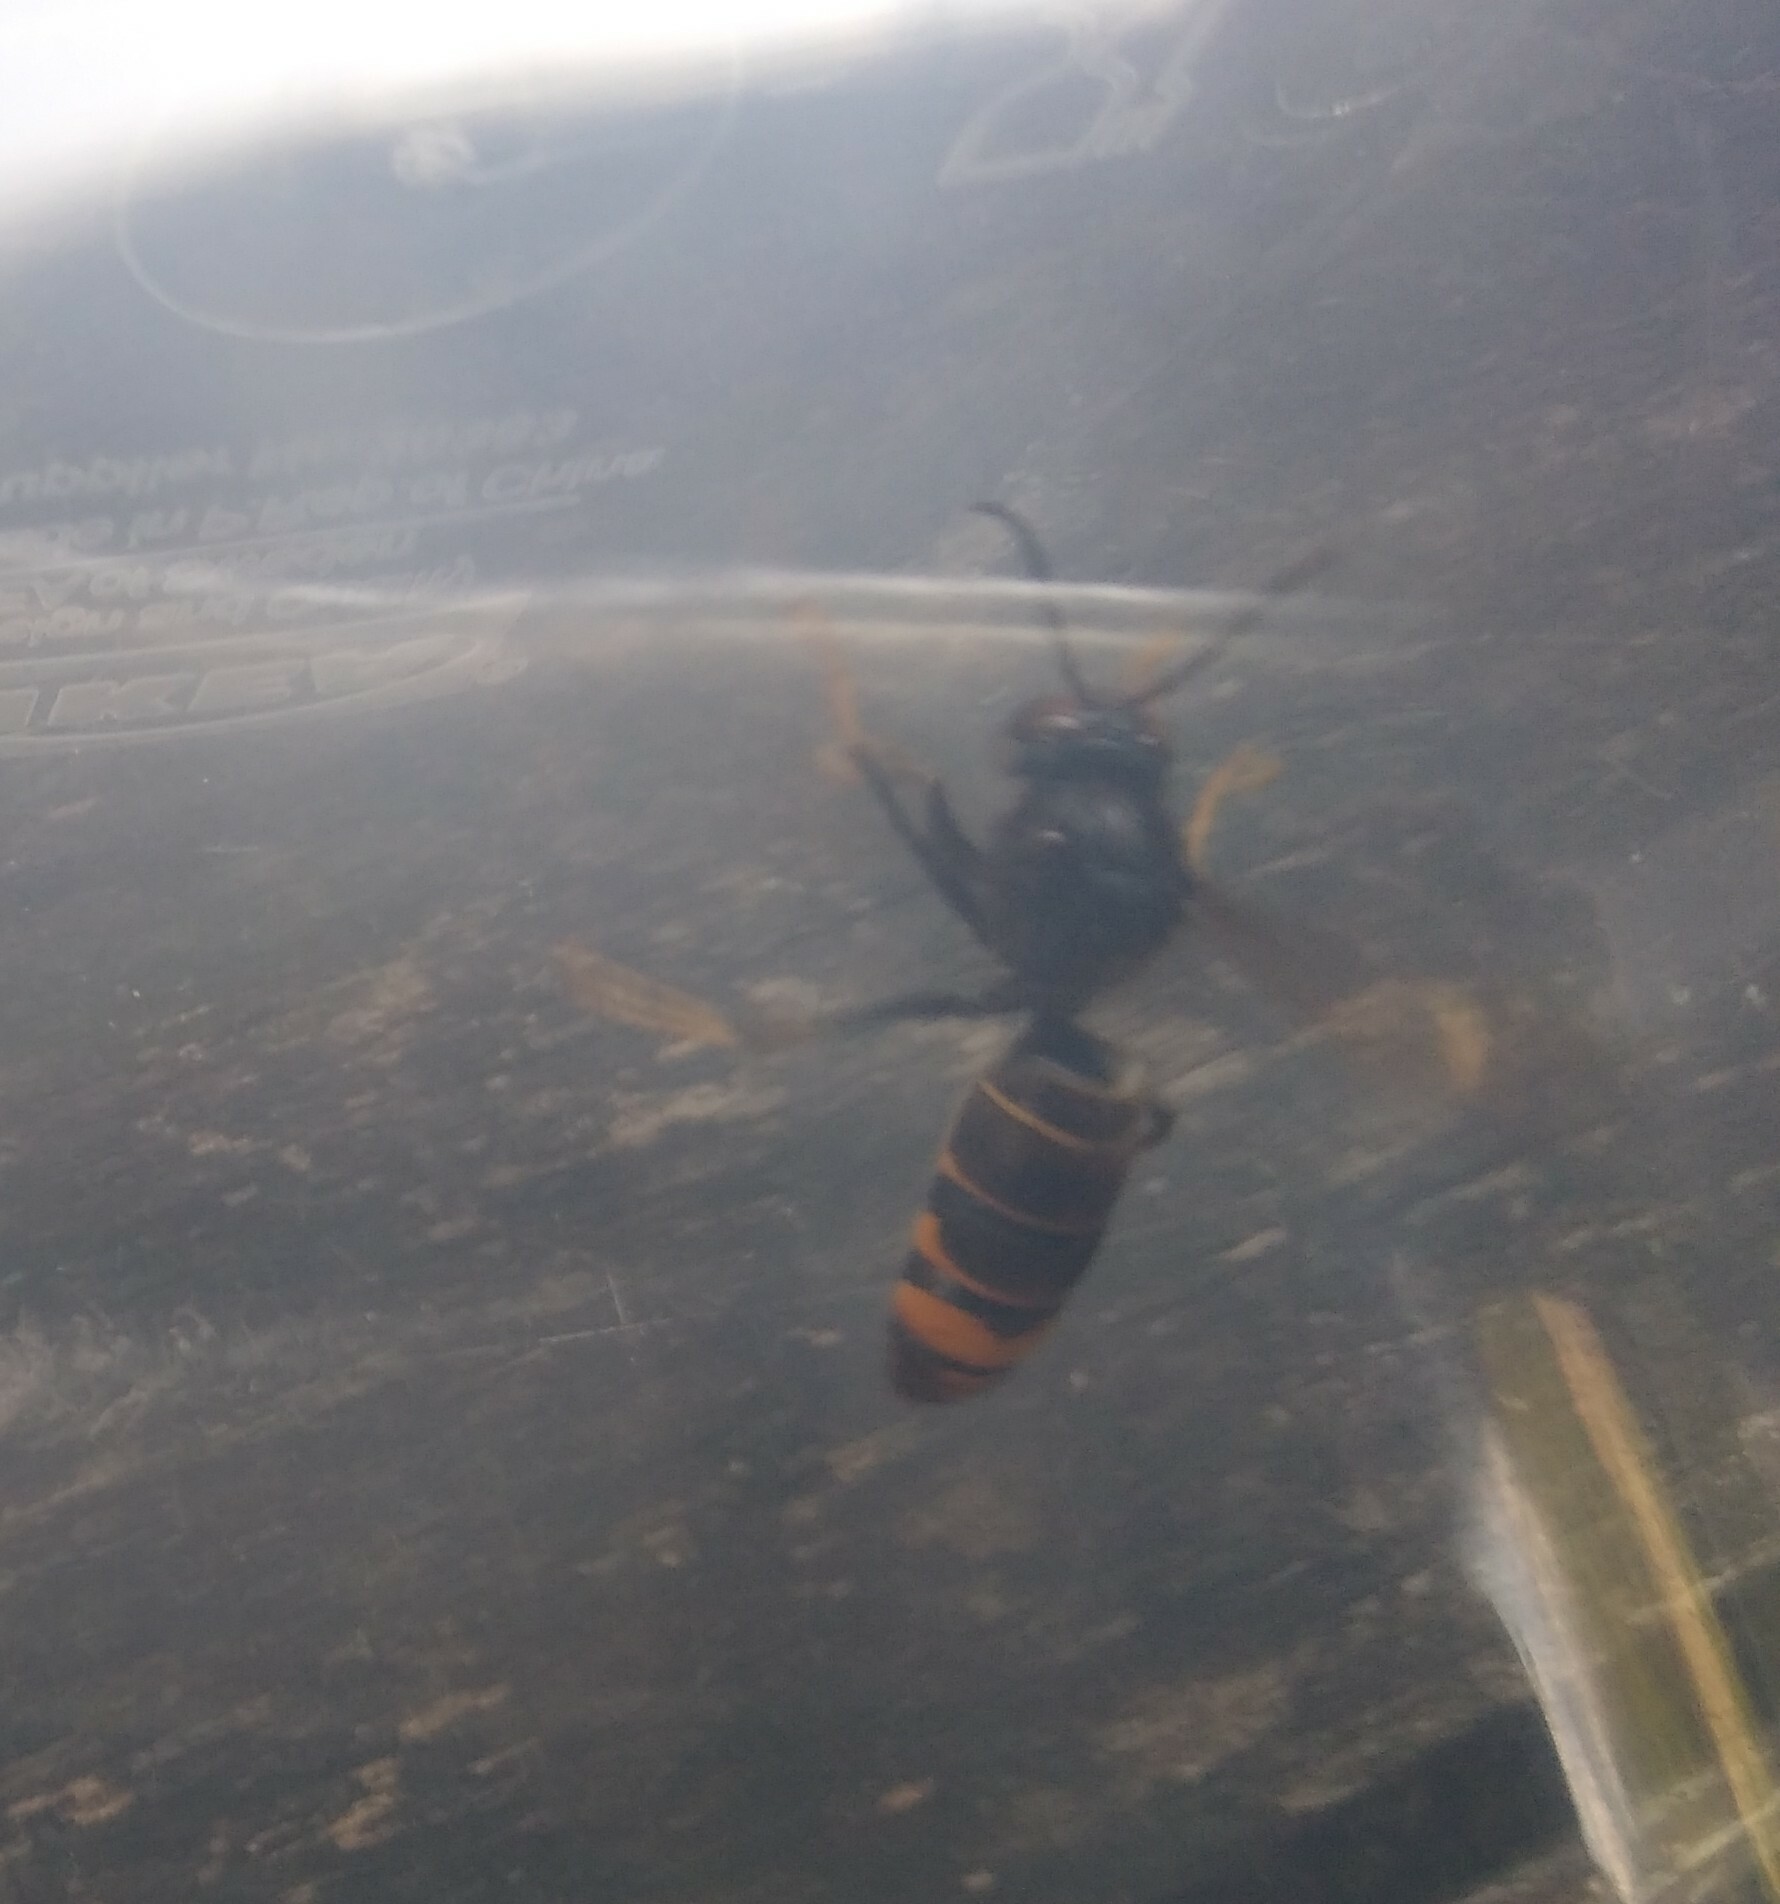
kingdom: Animalia
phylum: Arthropoda
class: Insecta
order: Hymenoptera
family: Vespidae
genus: Vespa
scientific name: Vespa velutina
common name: Asian hornet
